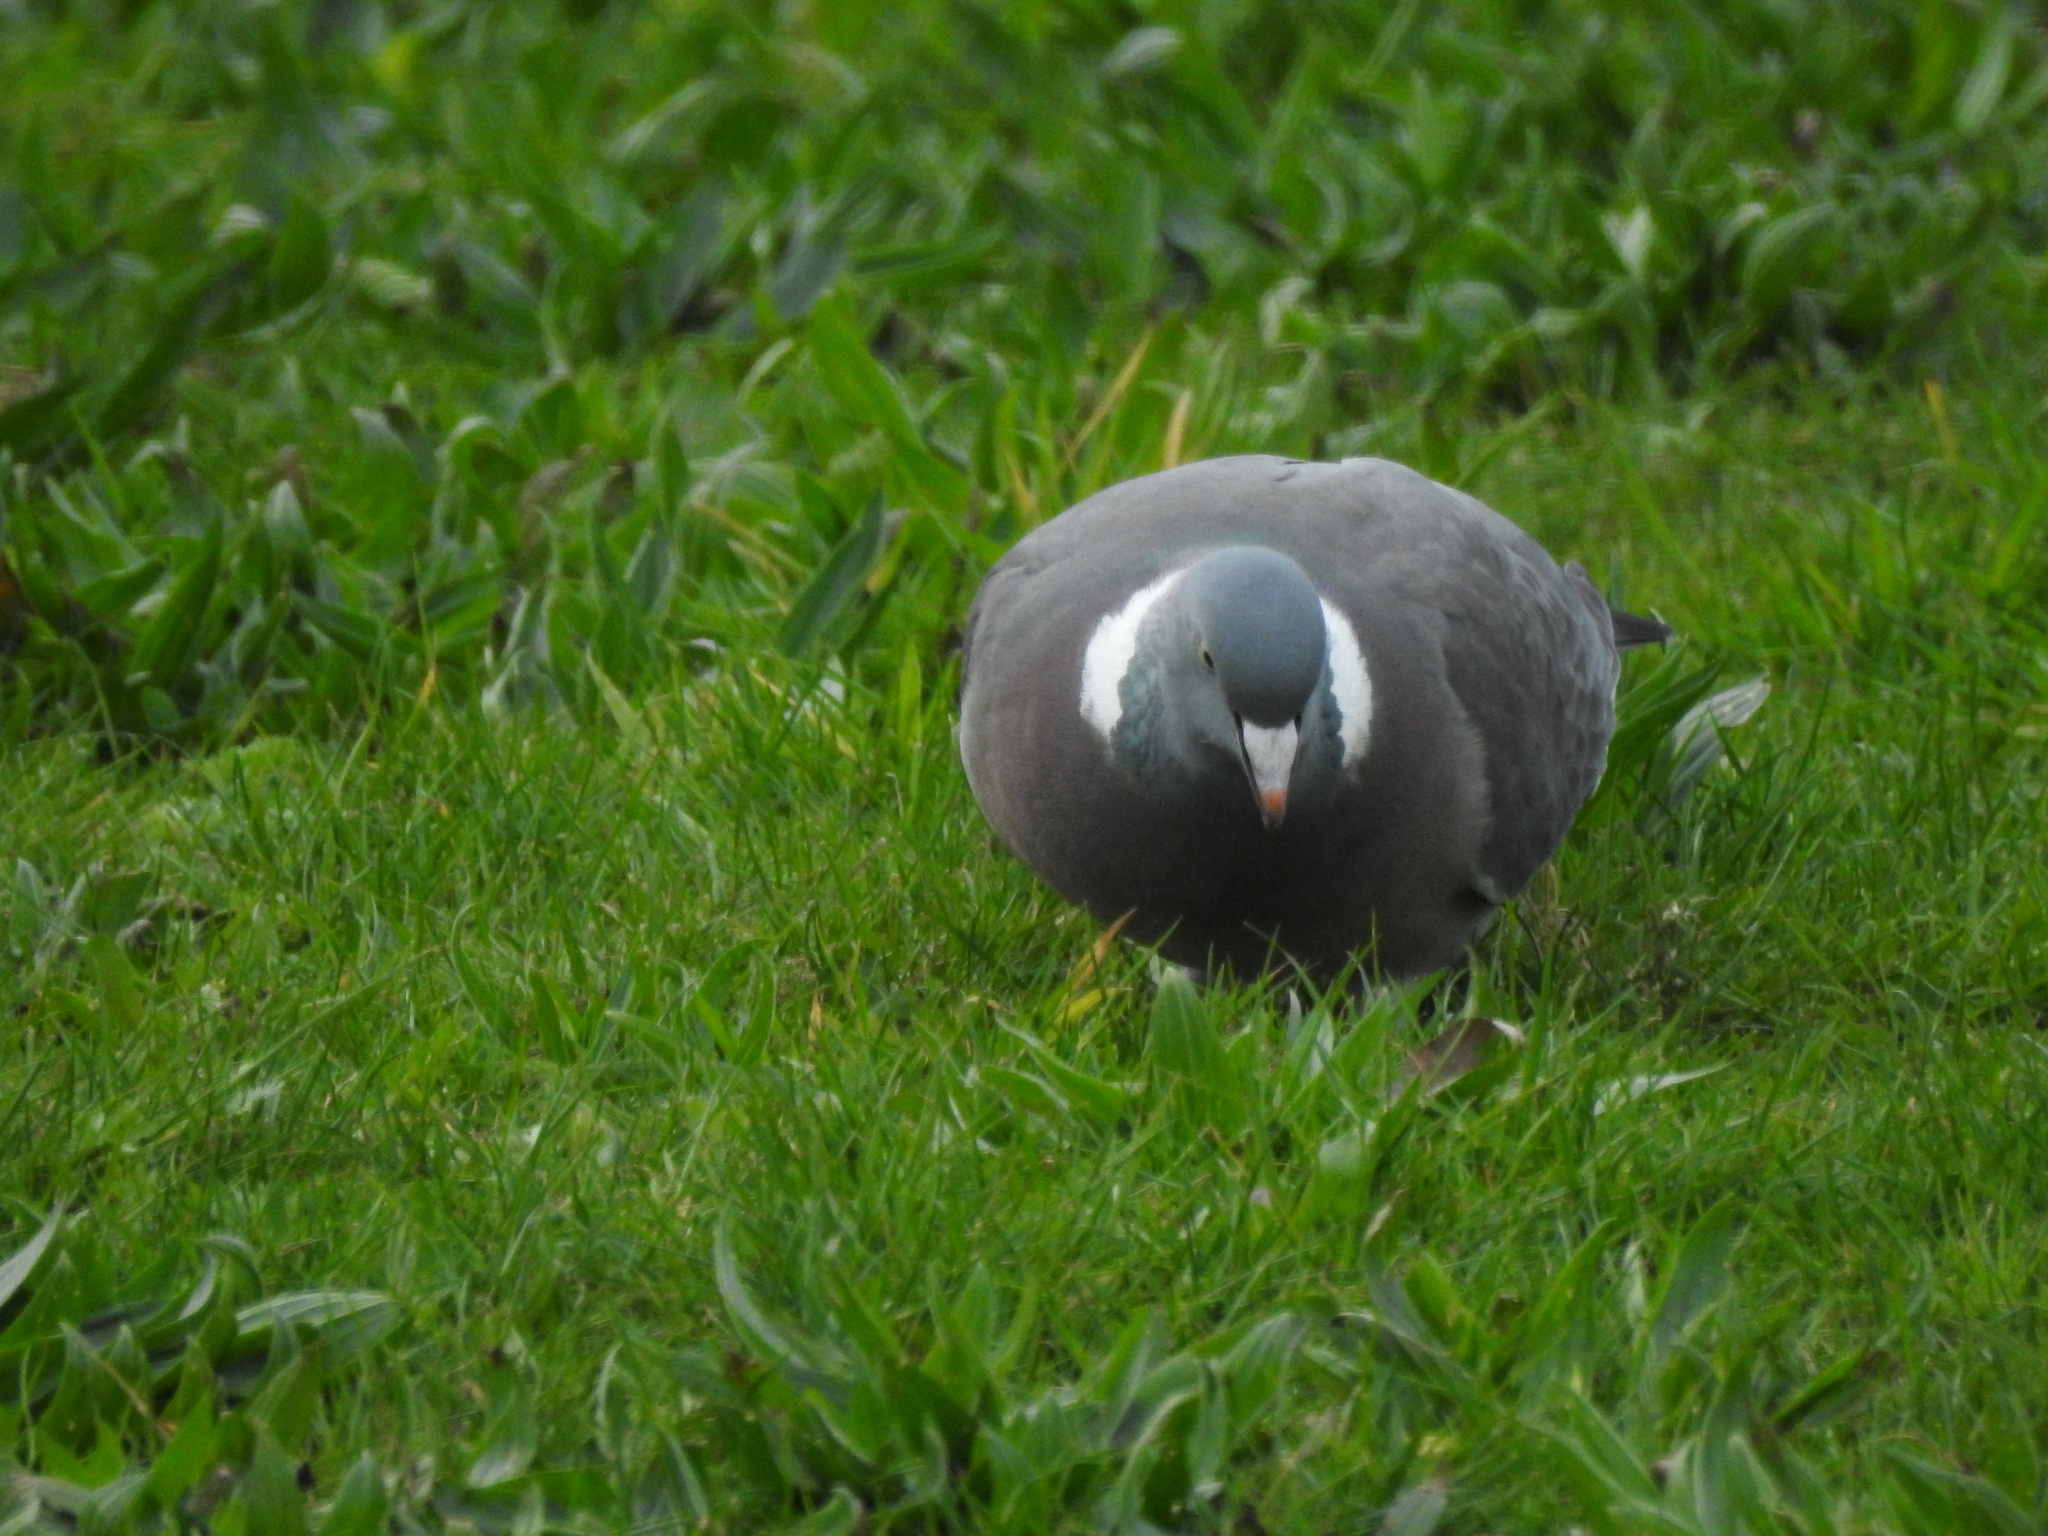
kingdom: Animalia
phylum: Chordata
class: Aves
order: Columbiformes
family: Columbidae
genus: Columba
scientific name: Columba palumbus
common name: Common wood pigeon
